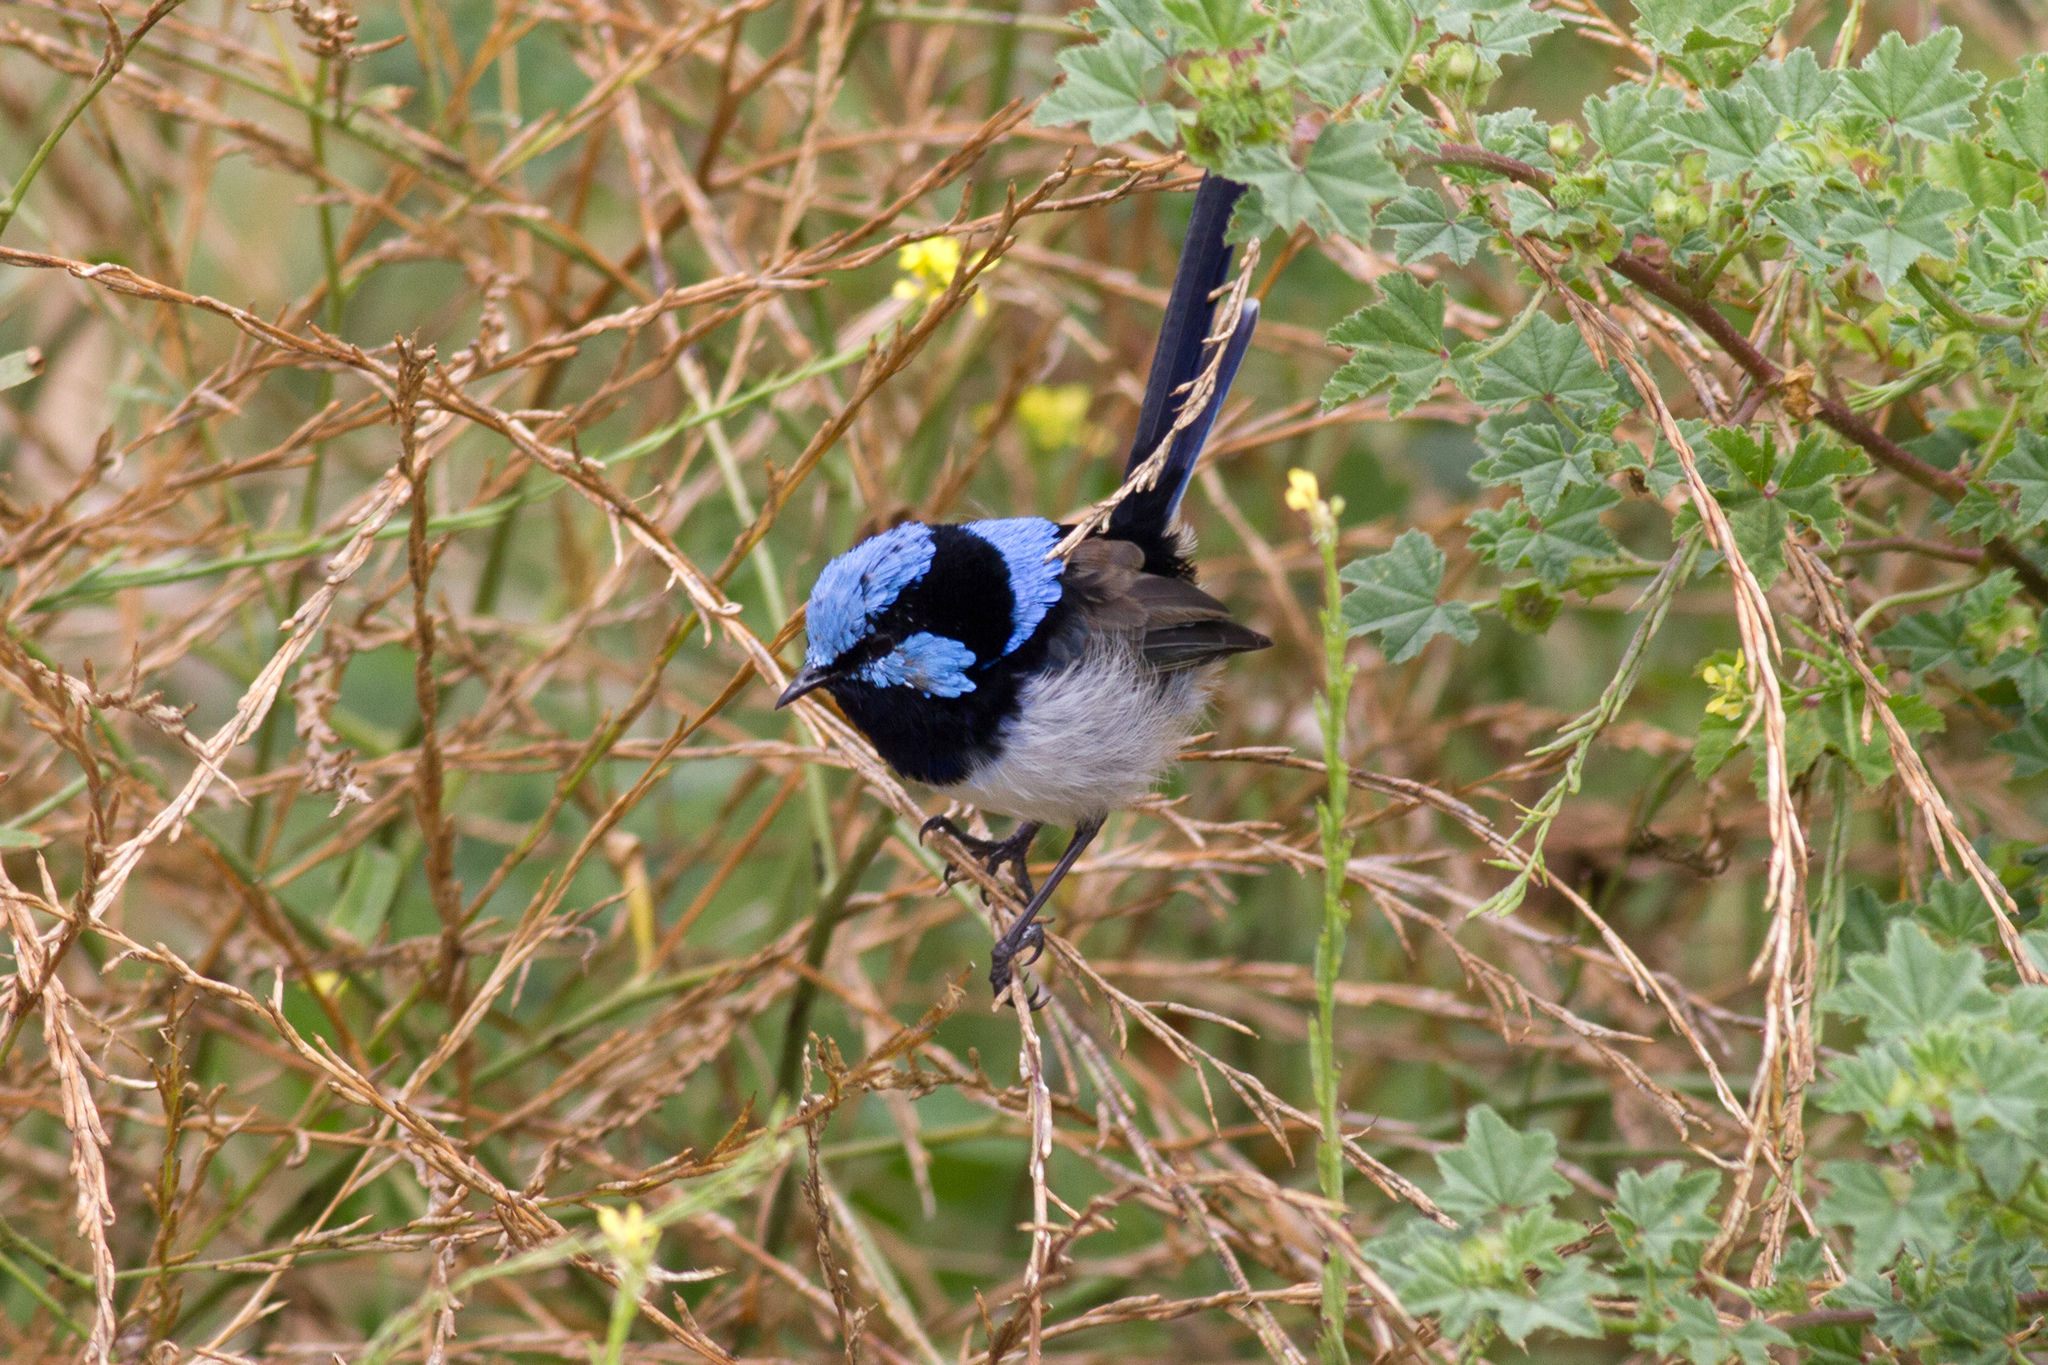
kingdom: Animalia
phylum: Chordata
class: Aves
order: Passeriformes
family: Maluridae
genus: Malurus
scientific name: Malurus cyaneus
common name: Superb fairywren
